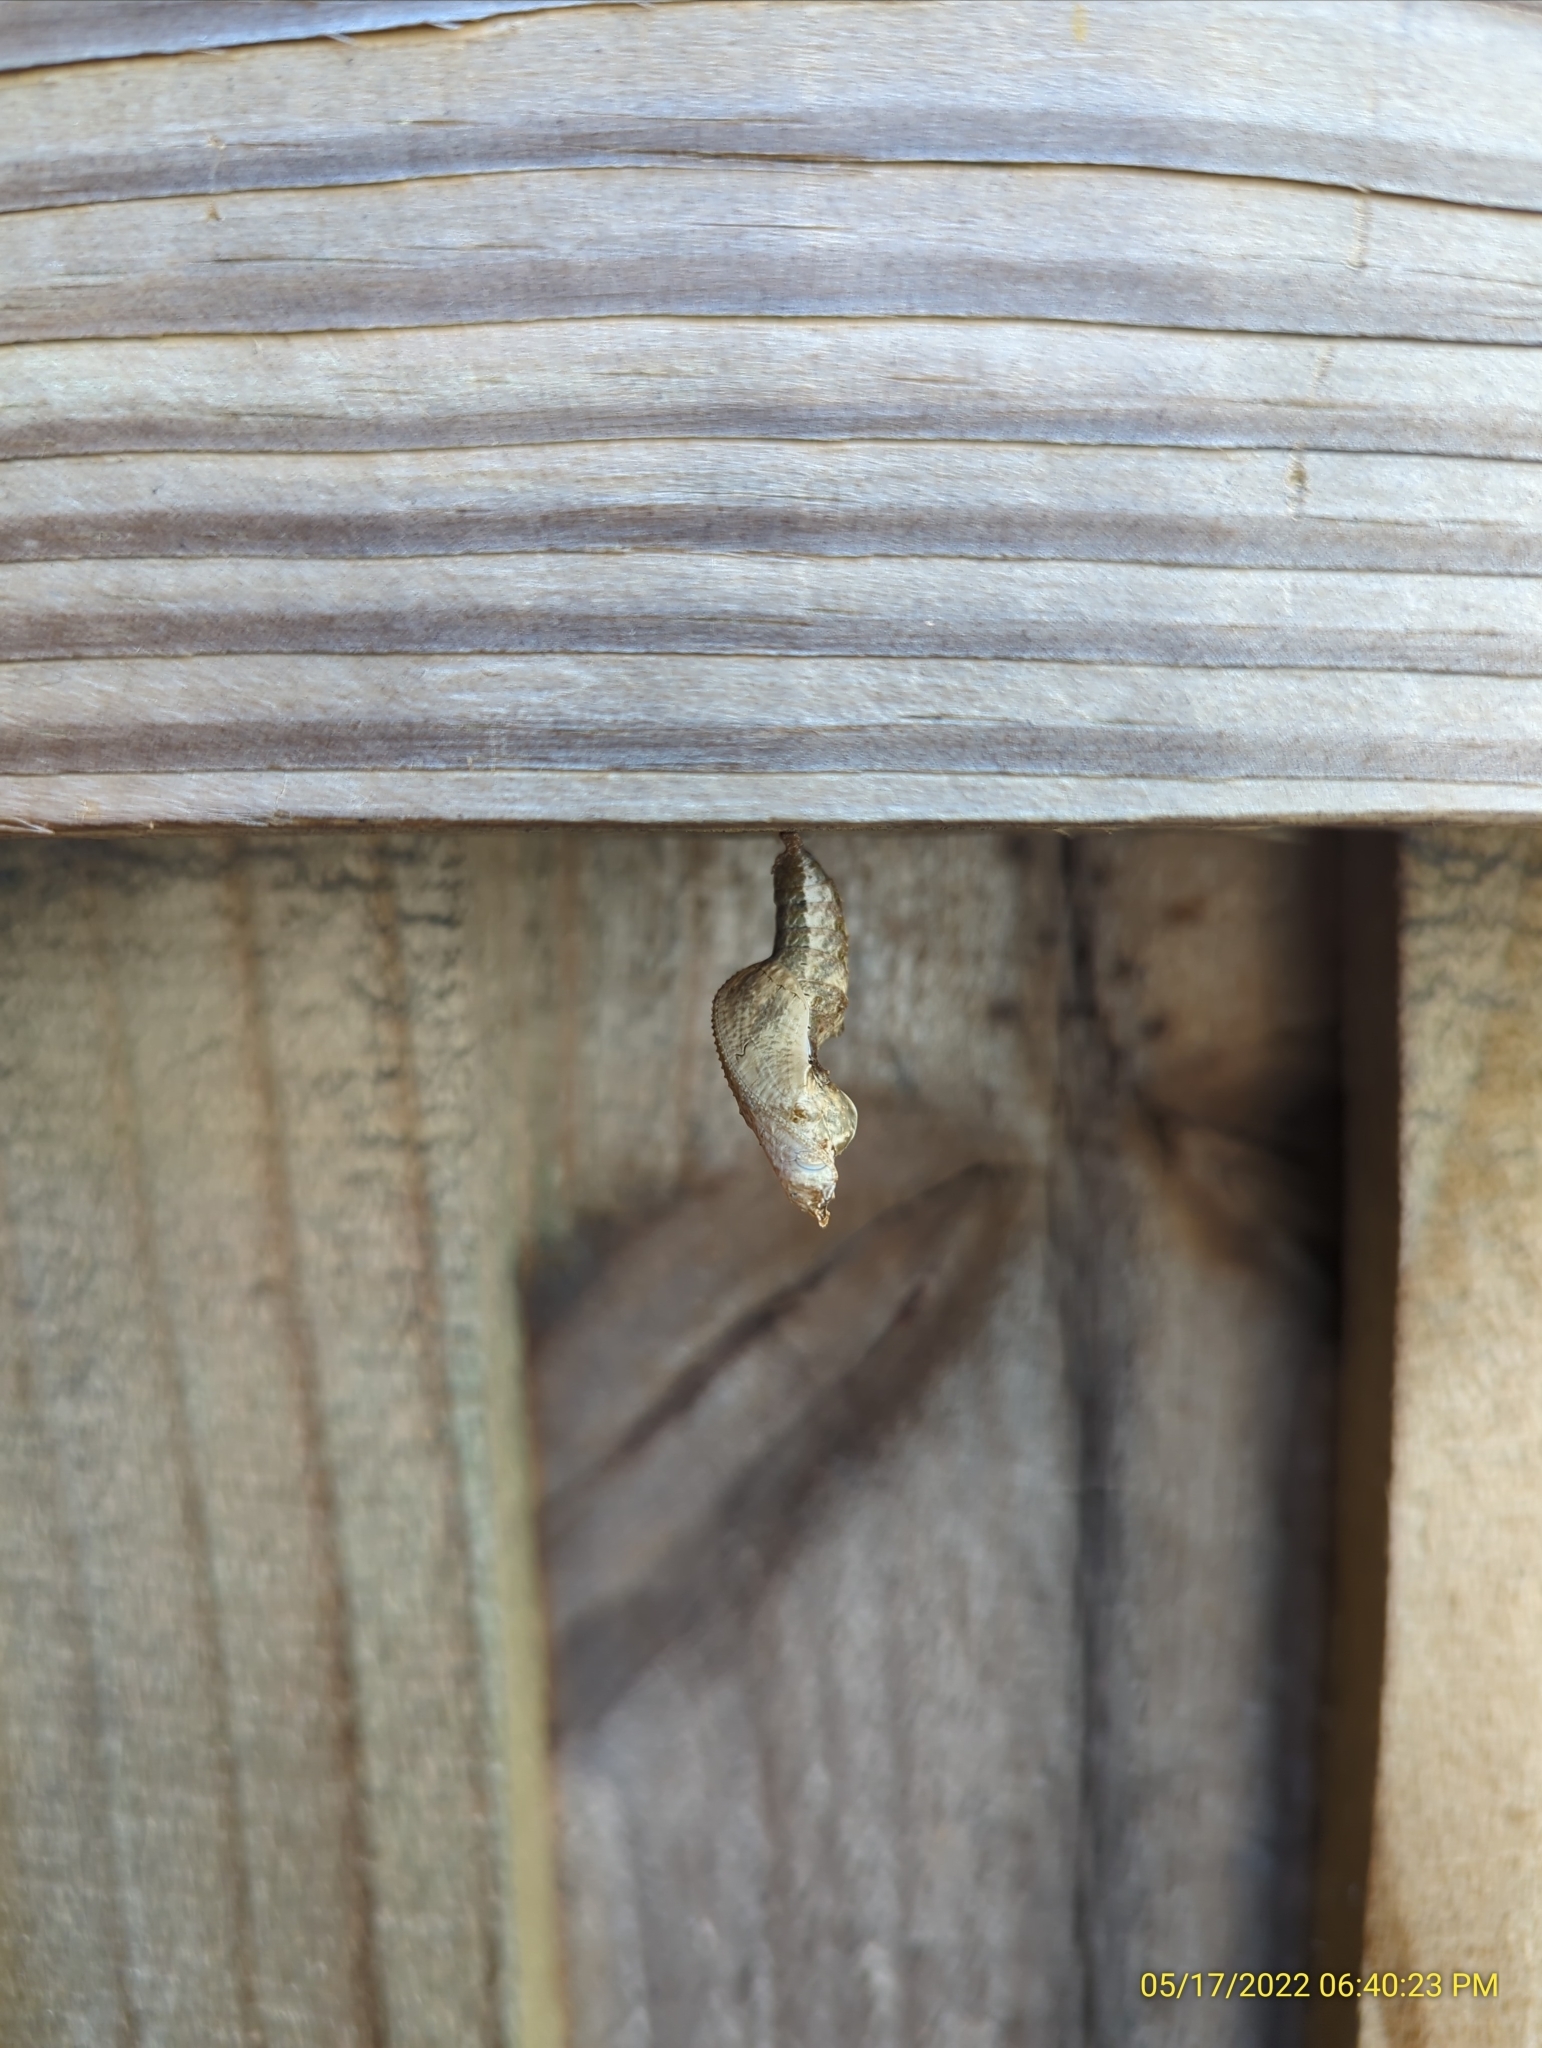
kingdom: Animalia
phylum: Arthropoda
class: Insecta
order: Lepidoptera
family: Nymphalidae
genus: Dione
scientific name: Dione vanillae
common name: Gulf fritillary
